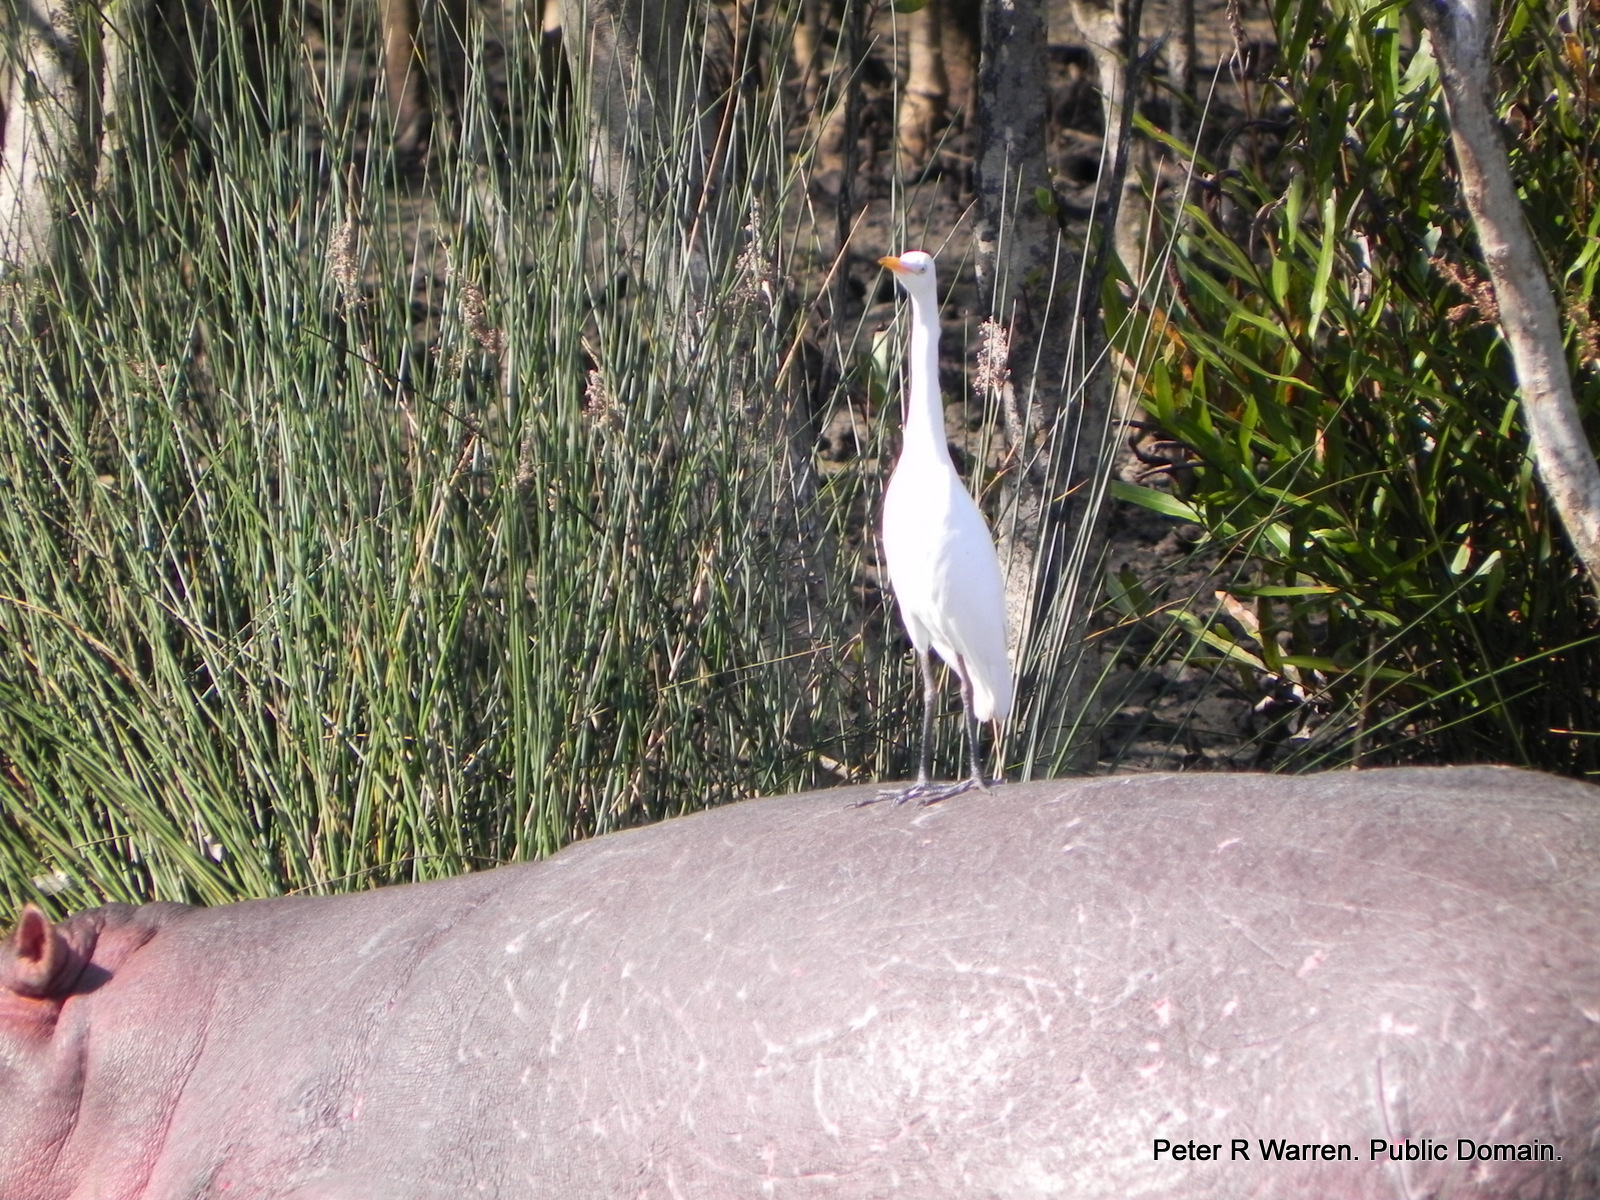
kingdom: Animalia
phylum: Chordata
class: Aves
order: Pelecaniformes
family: Ardeidae
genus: Bubulcus
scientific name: Bubulcus ibis
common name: Cattle egret
